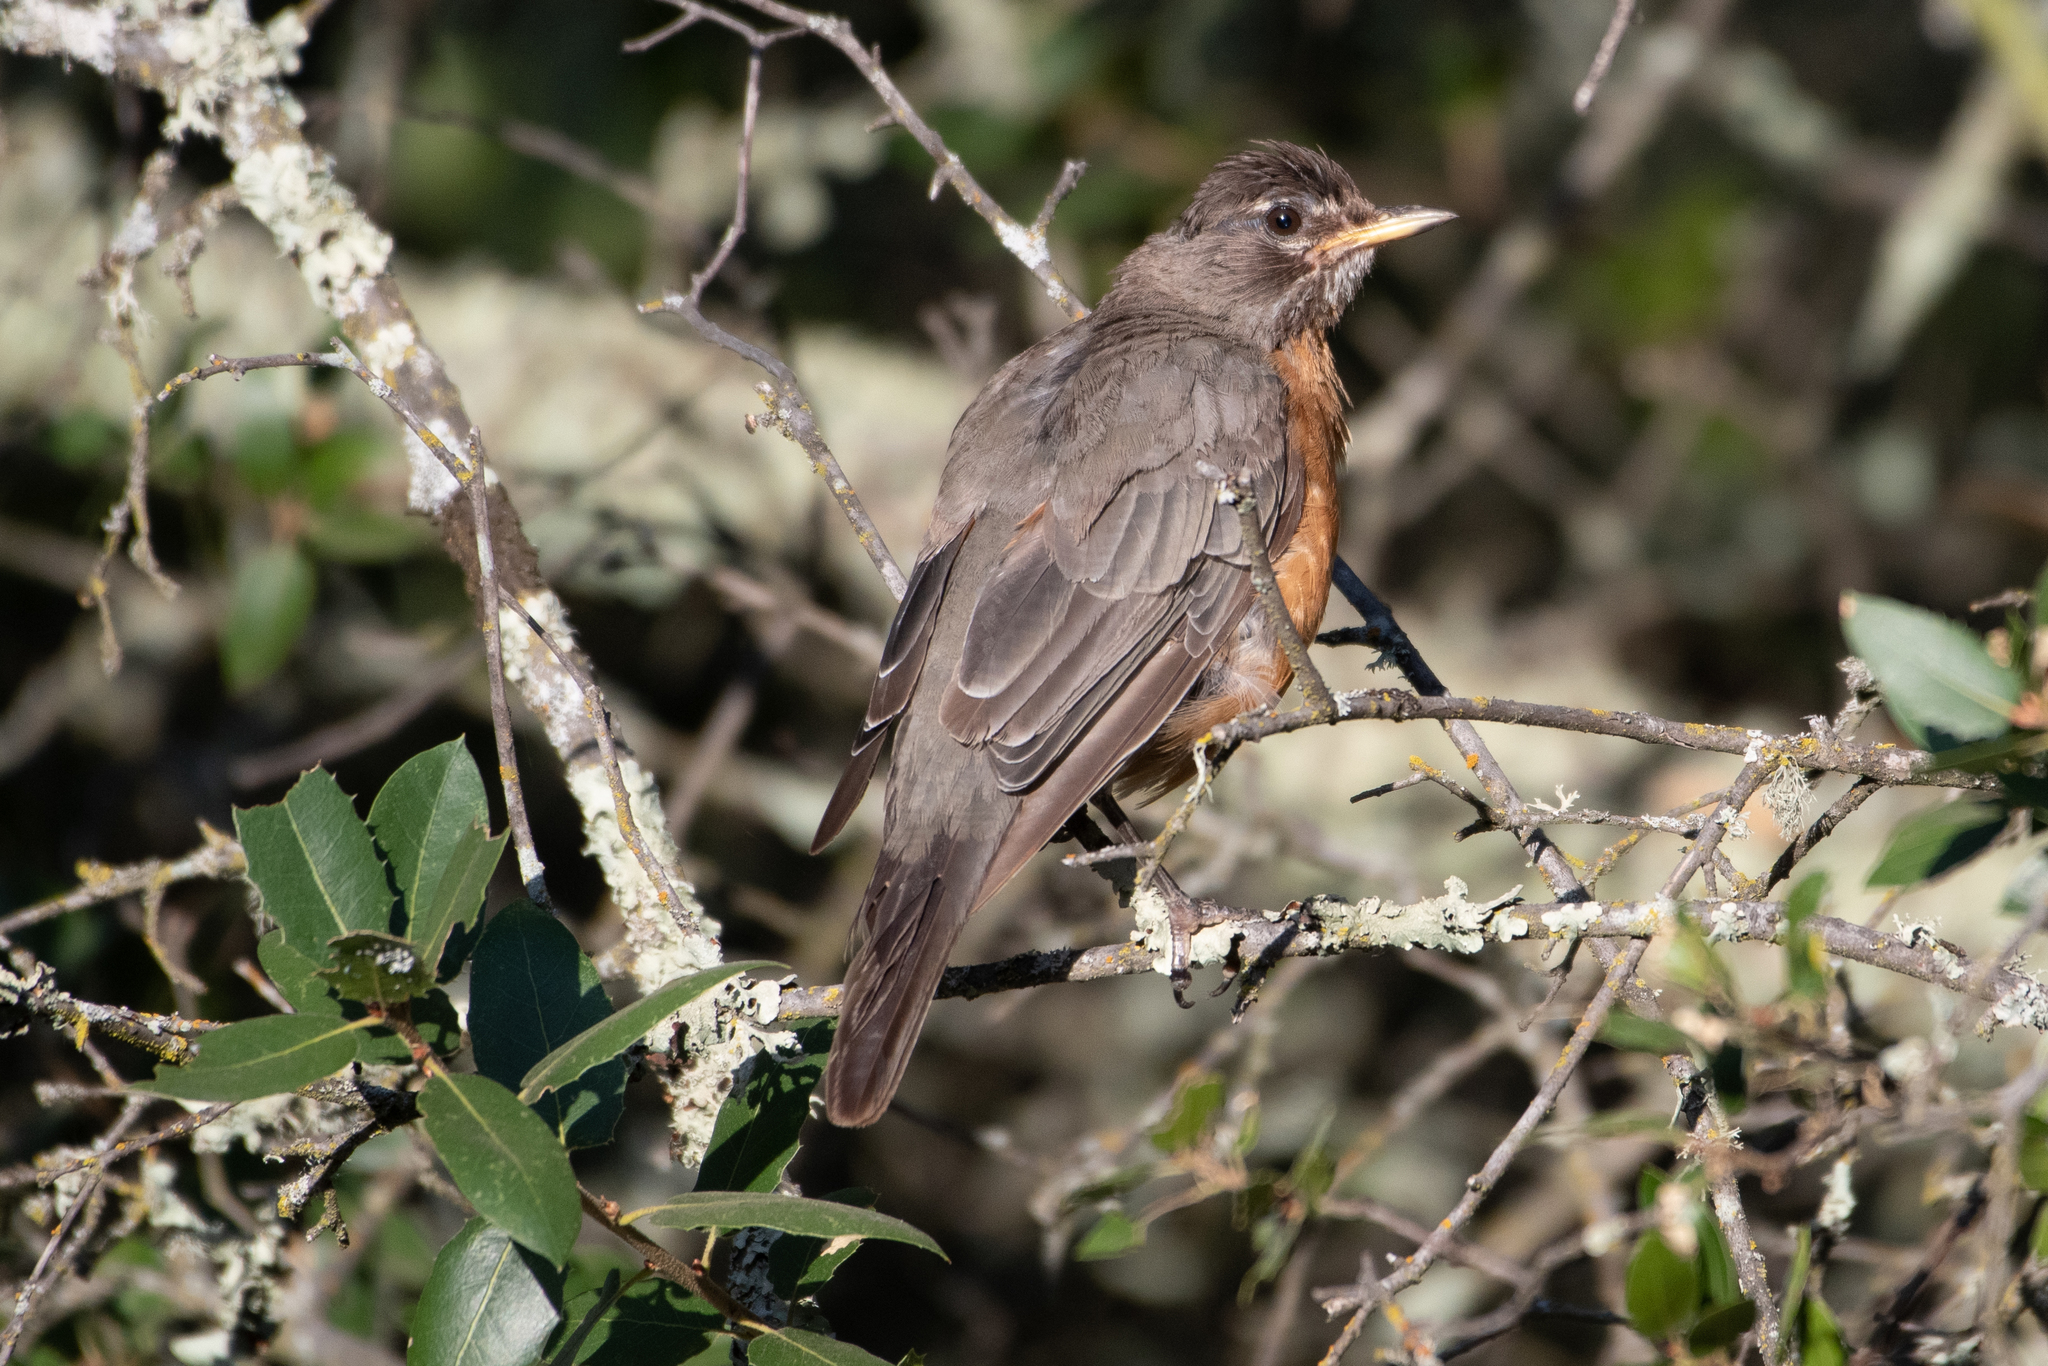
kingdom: Animalia
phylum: Chordata
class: Aves
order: Passeriformes
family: Turdidae
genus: Turdus
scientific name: Turdus migratorius
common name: American robin
